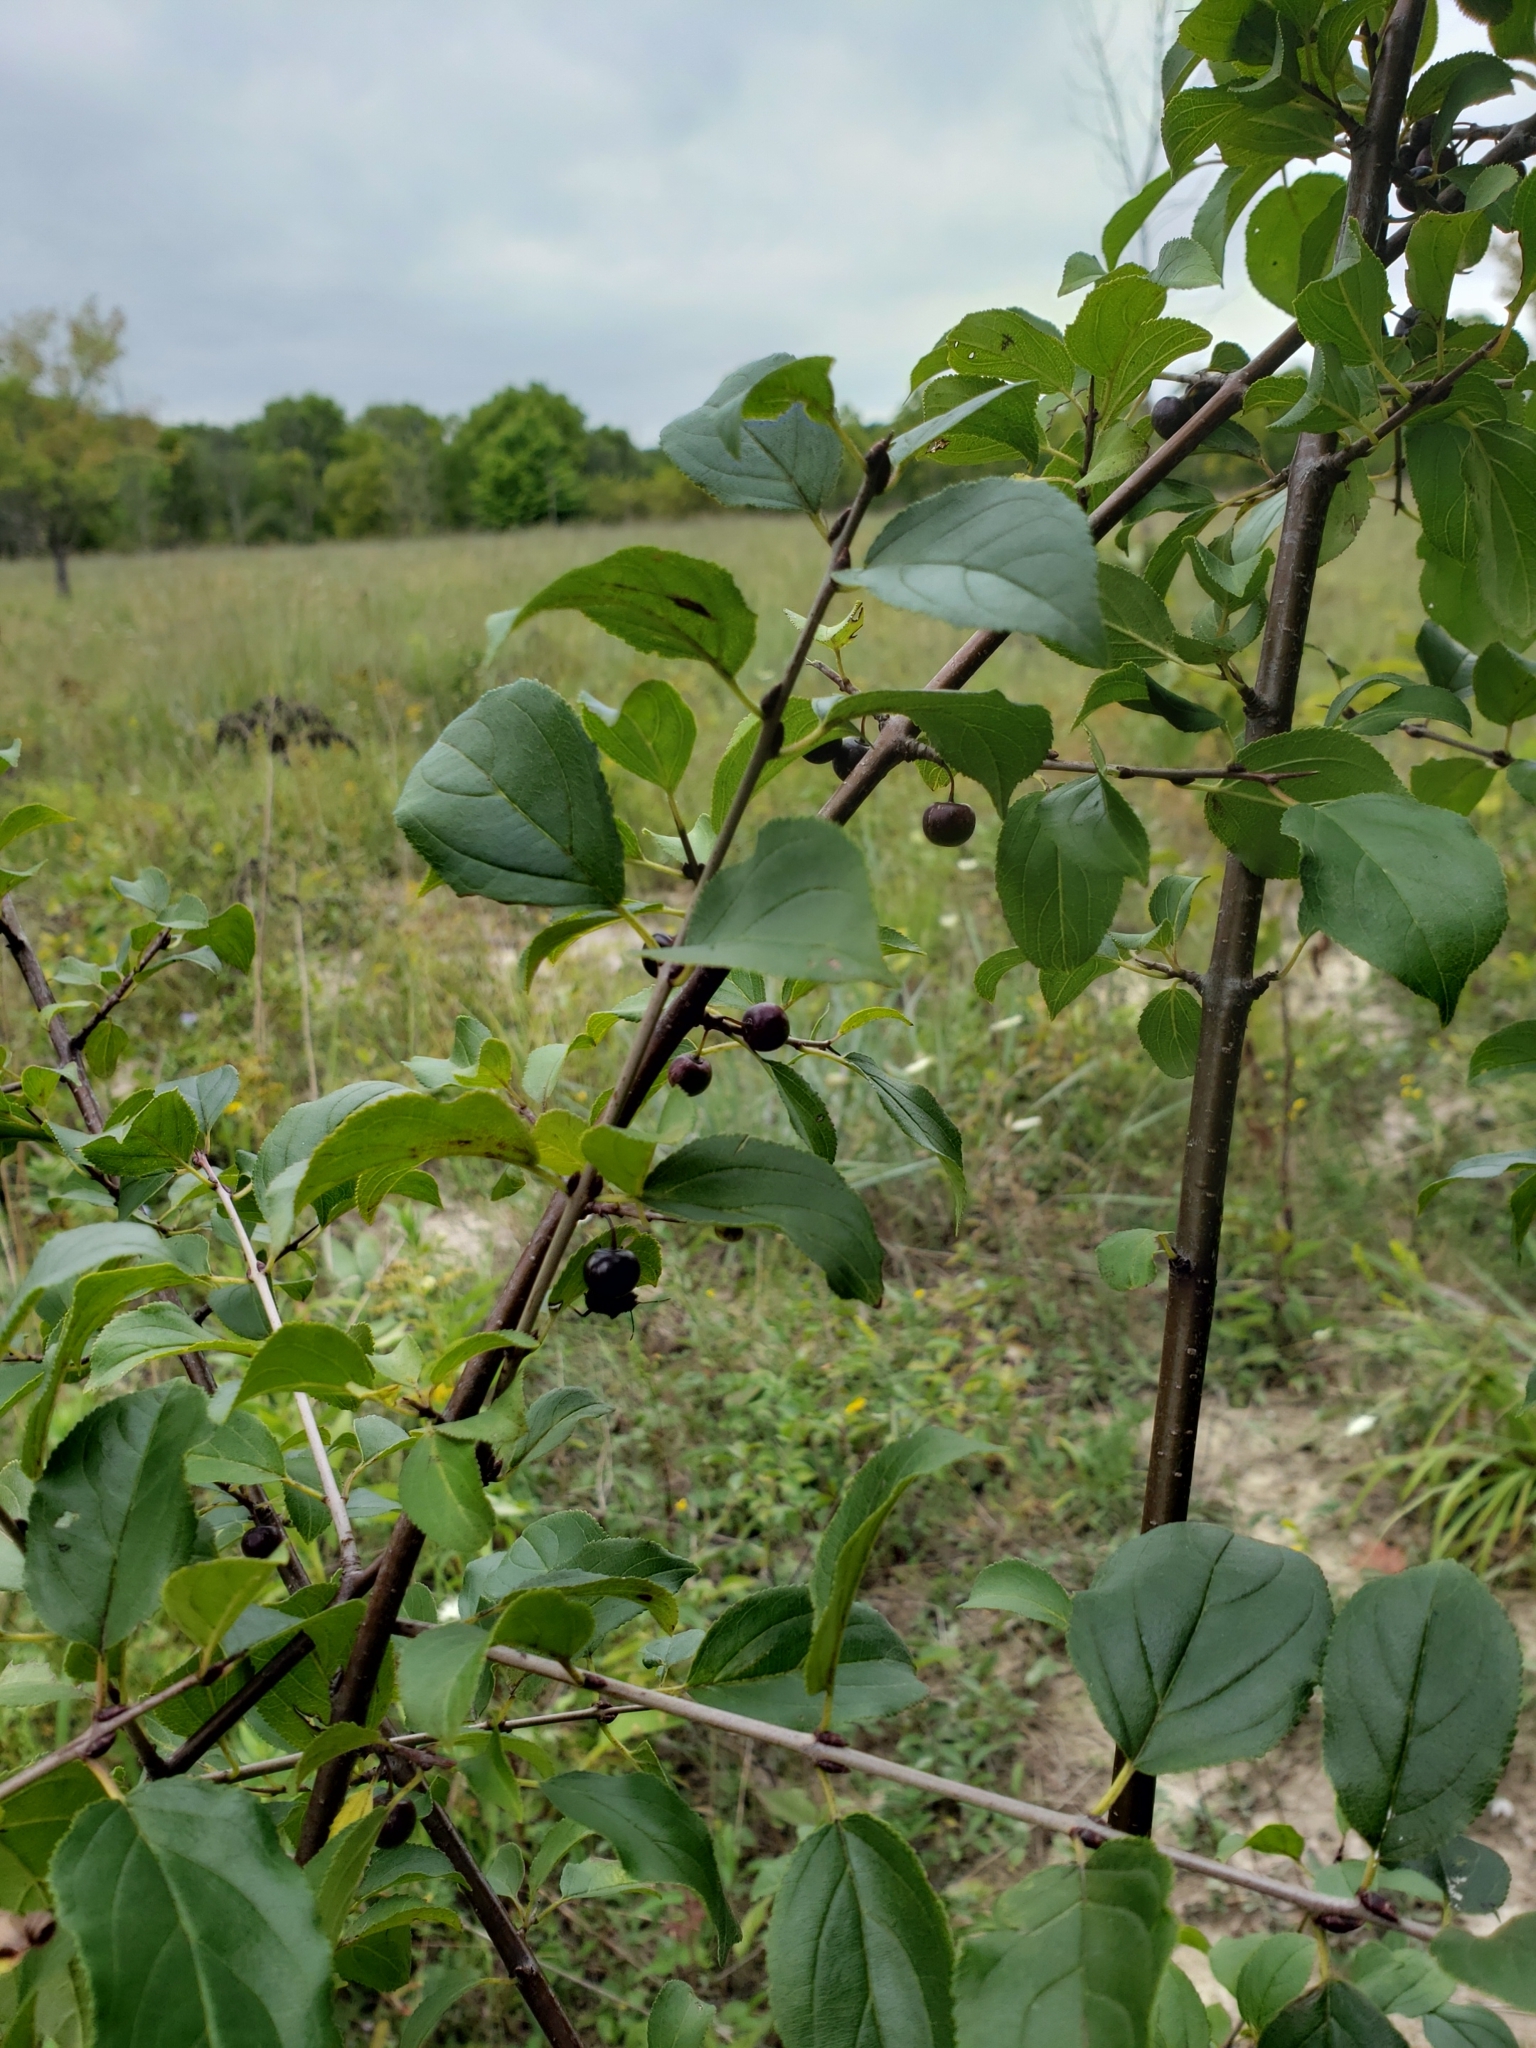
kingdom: Plantae
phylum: Tracheophyta
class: Magnoliopsida
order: Rosales
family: Rhamnaceae
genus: Rhamnus
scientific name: Rhamnus cathartica
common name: Common buckthorn
